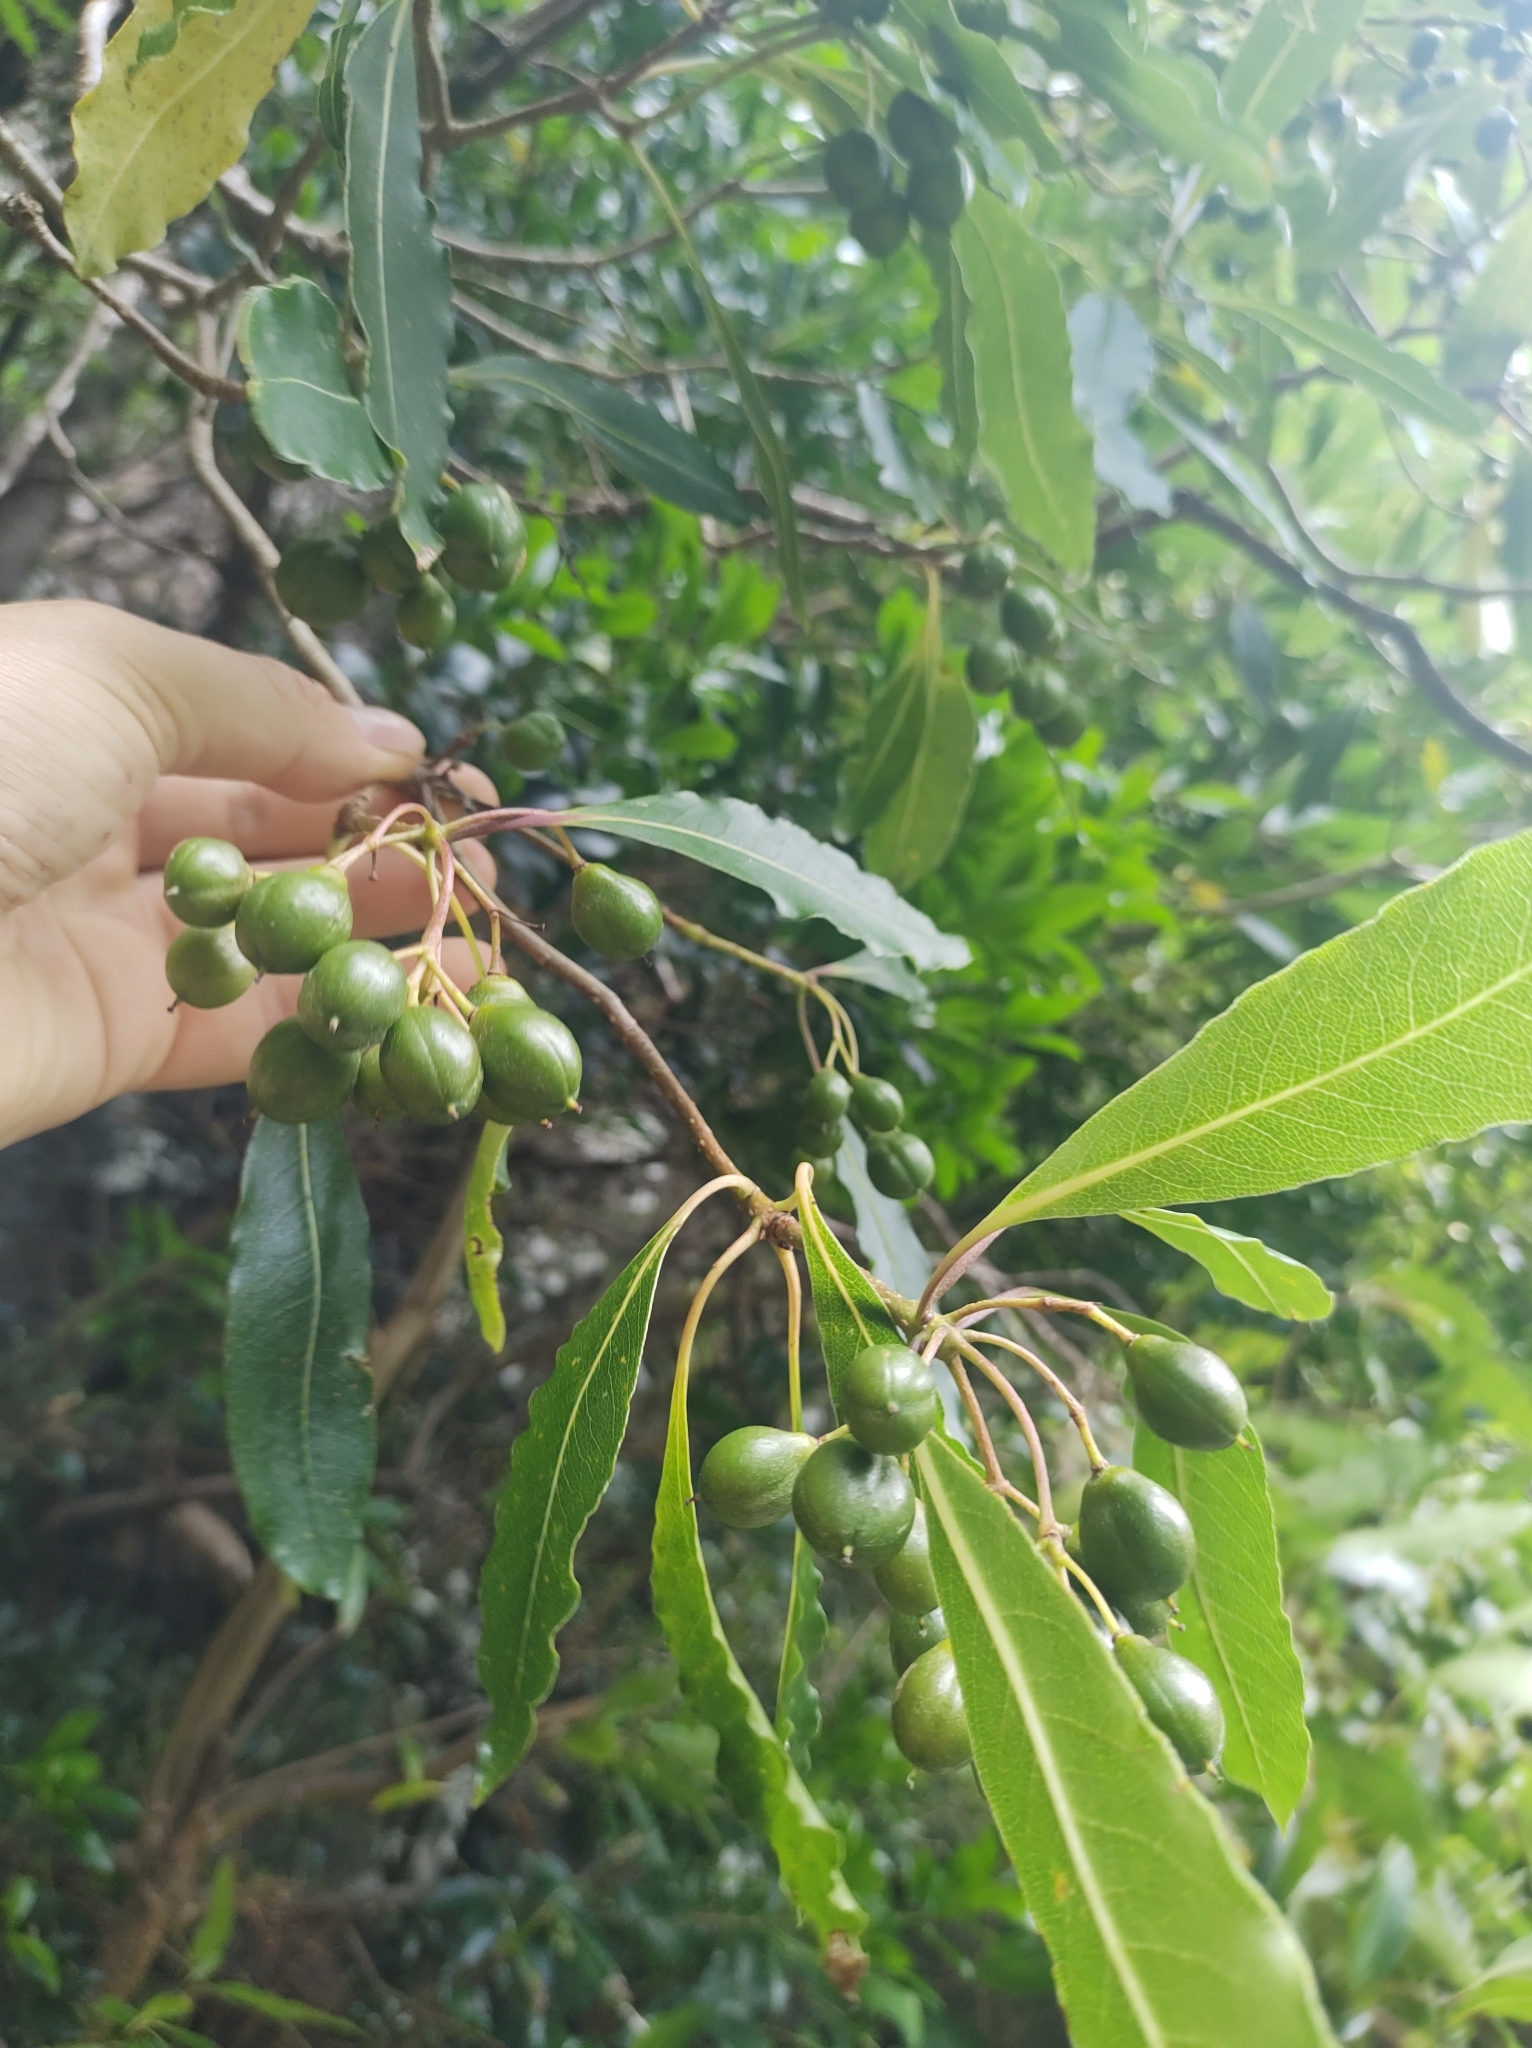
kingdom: Plantae
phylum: Tracheophyta
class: Magnoliopsida
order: Apiales
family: Pittosporaceae
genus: Pittosporum
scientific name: Pittosporum undulatum
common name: Australian cheesewood
